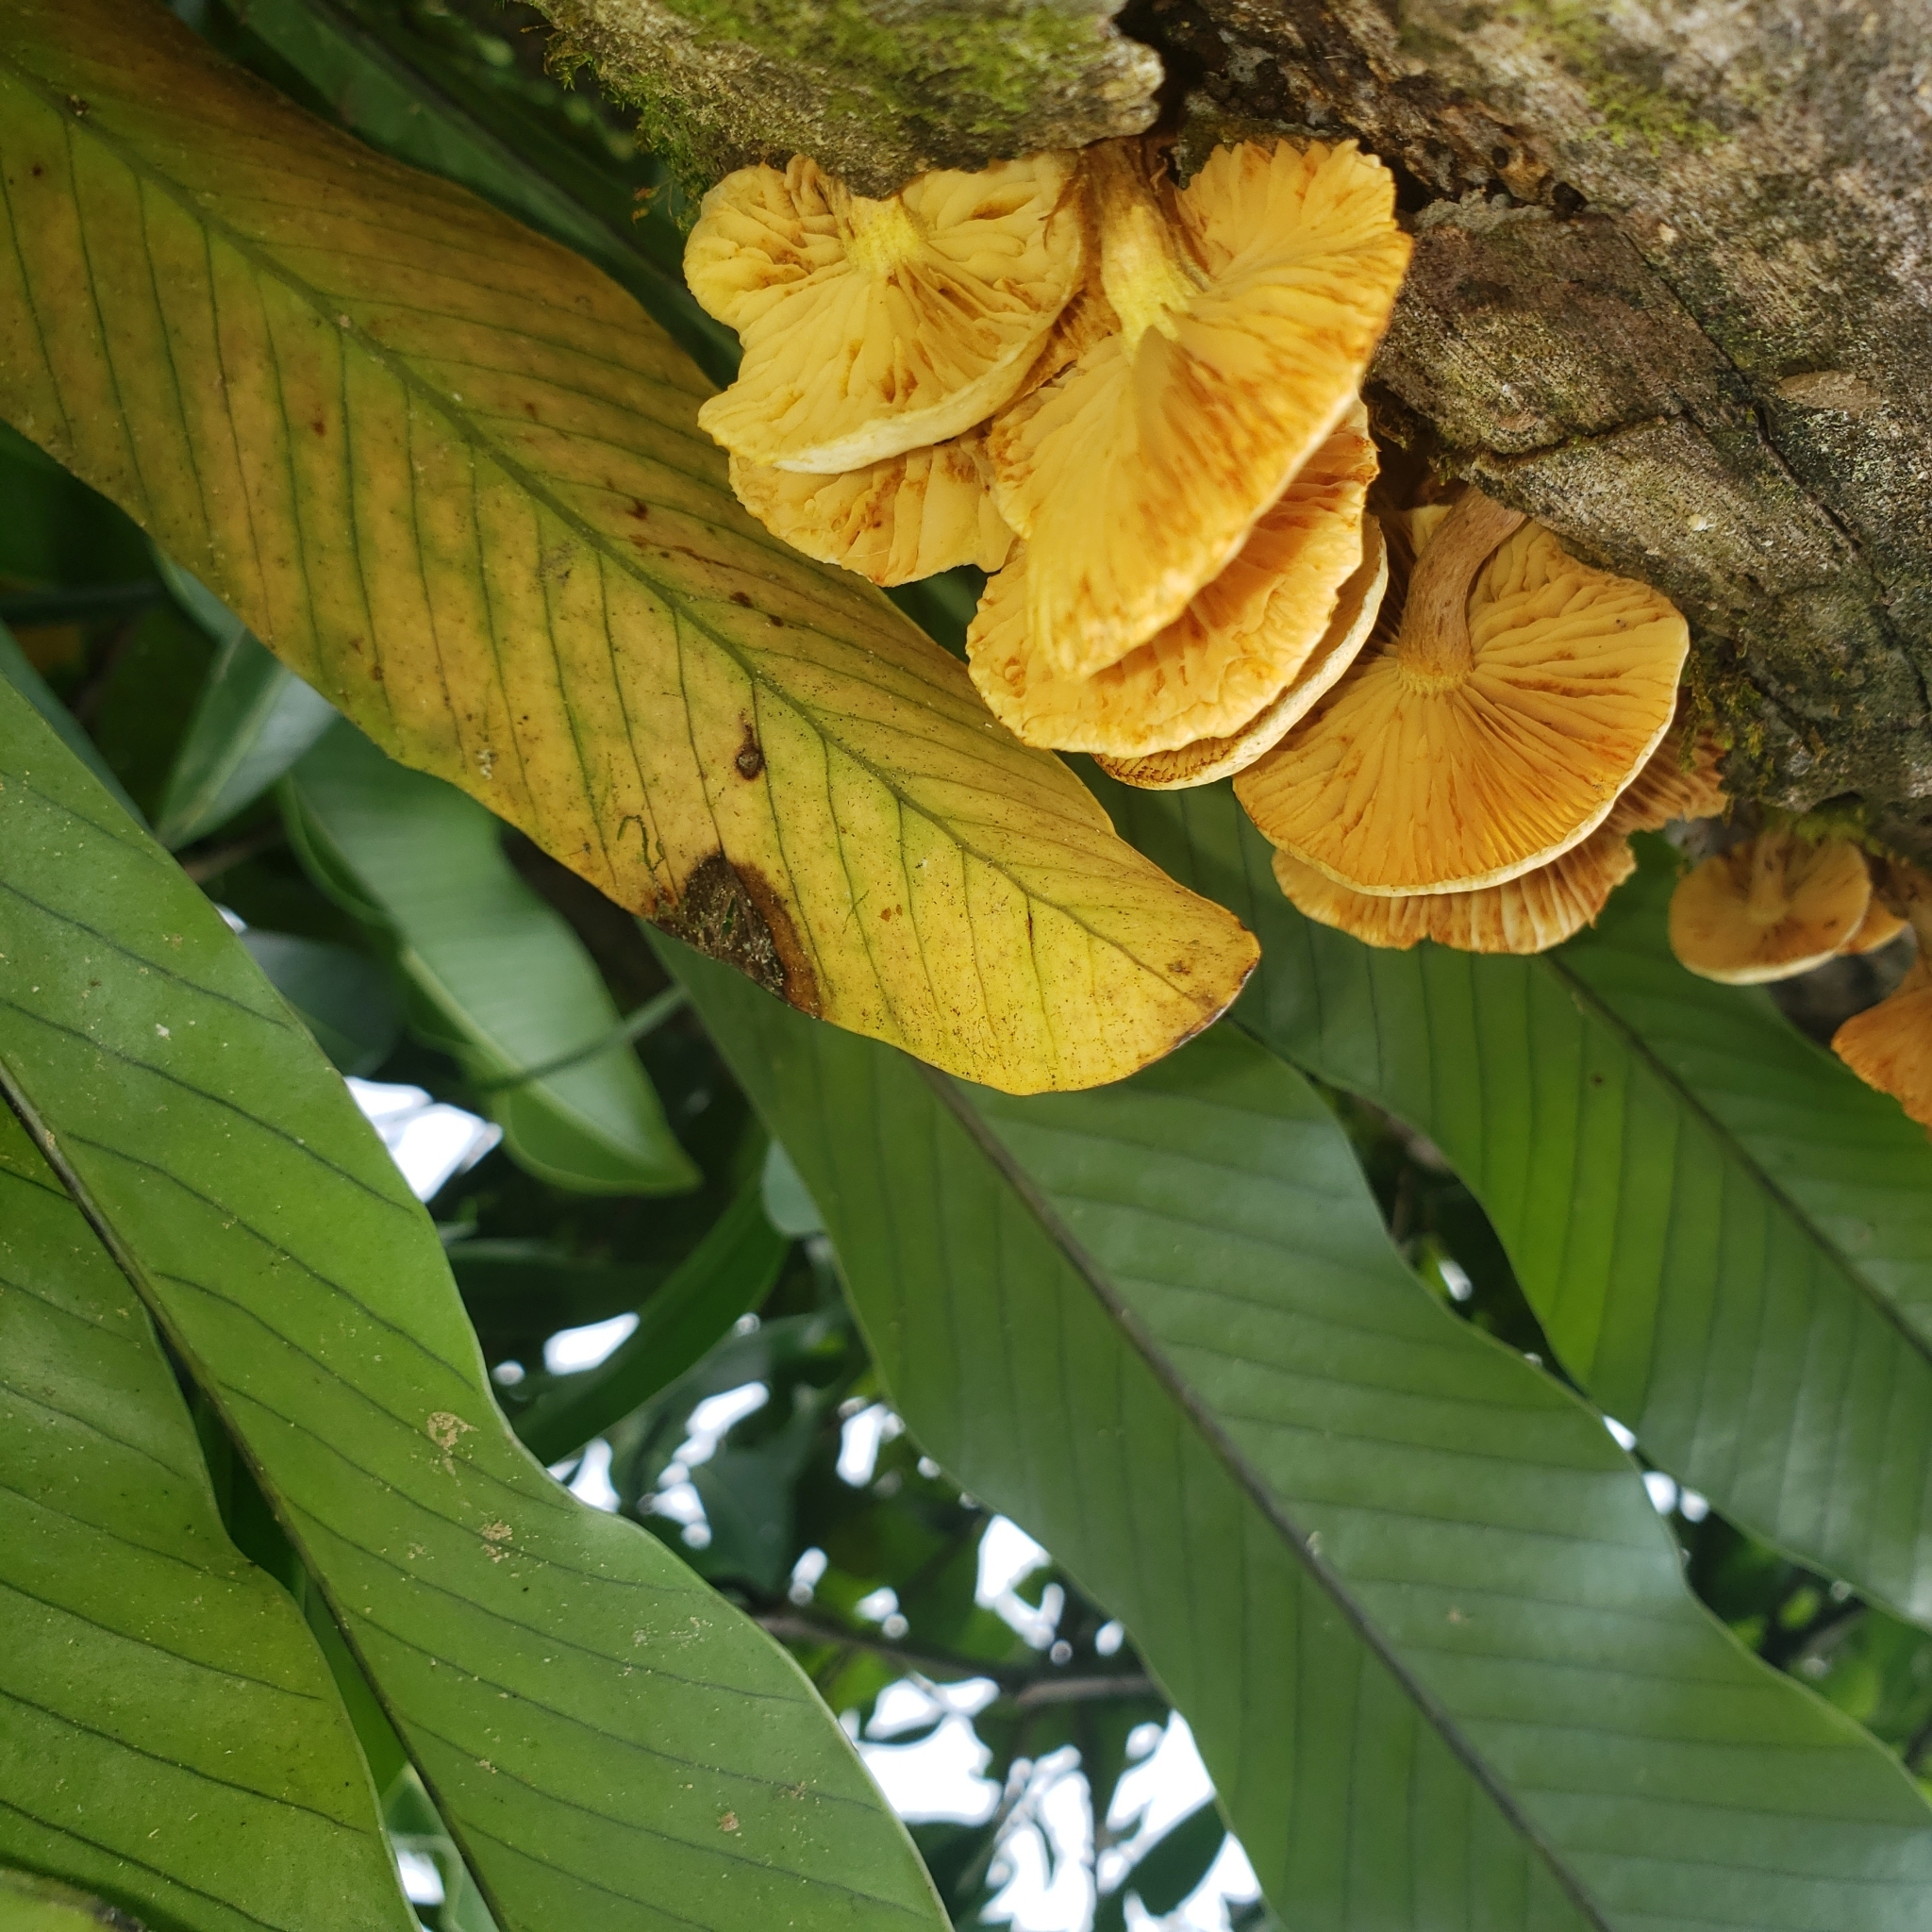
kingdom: Fungi
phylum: Basidiomycota
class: Agaricomycetes
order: Agaricales
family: Hymenogastraceae
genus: Gymnopilus
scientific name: Gymnopilus chrysopellus
